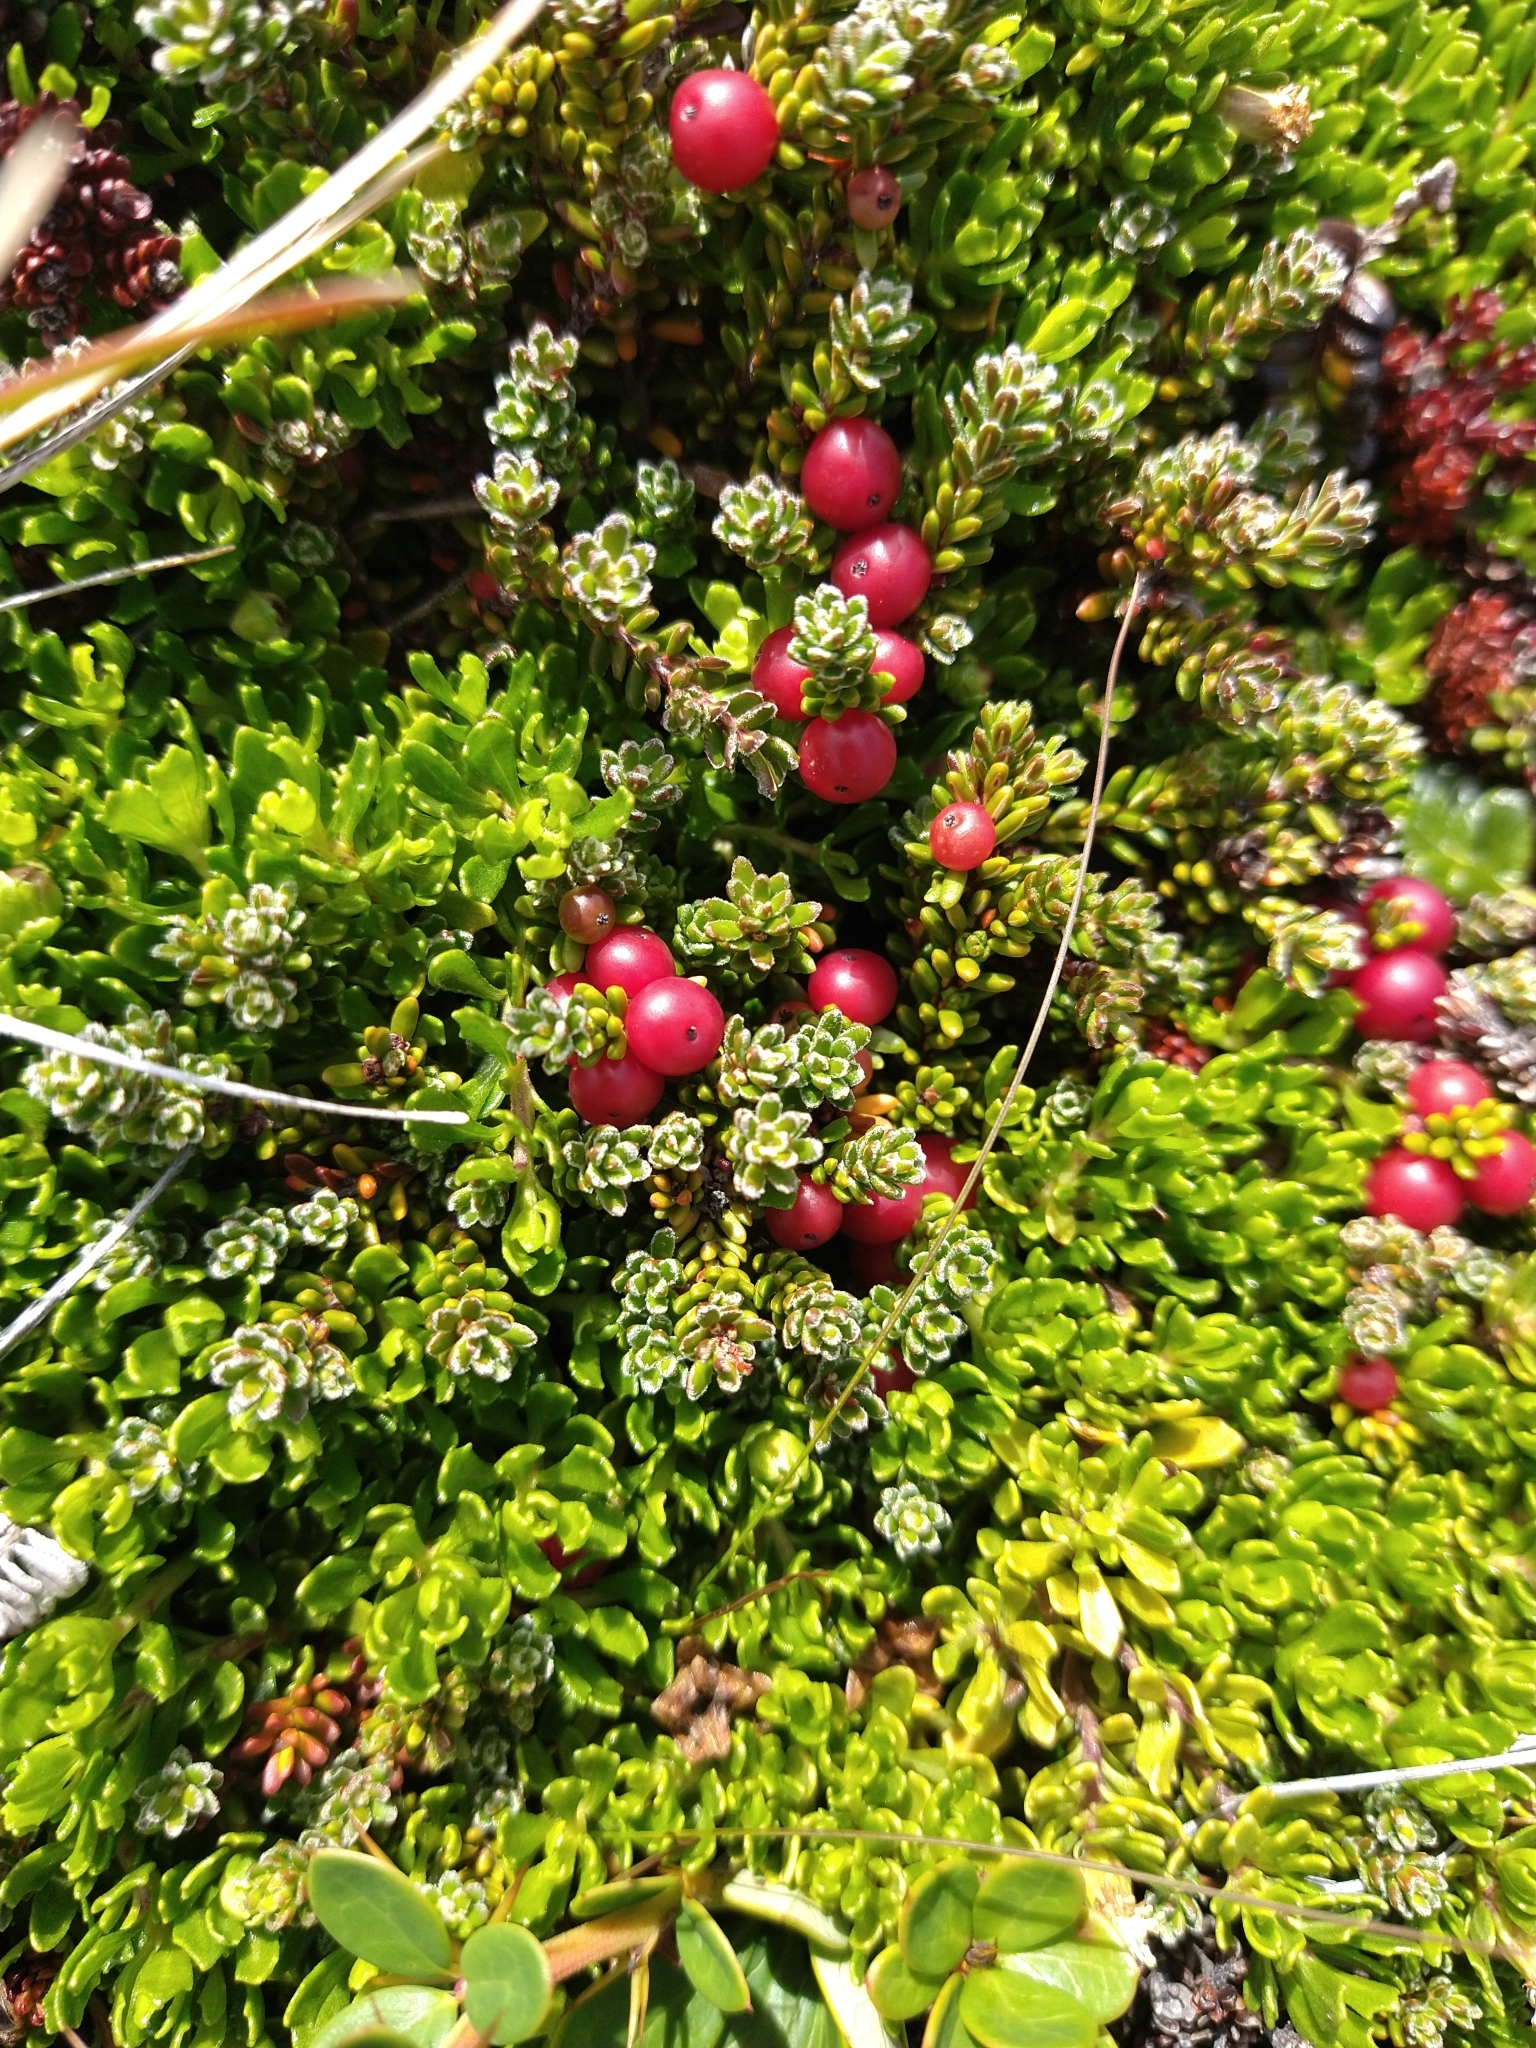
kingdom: Plantae
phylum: Tracheophyta
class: Magnoliopsida
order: Ericales
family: Ericaceae
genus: Empetrum
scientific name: Empetrum rubrum
